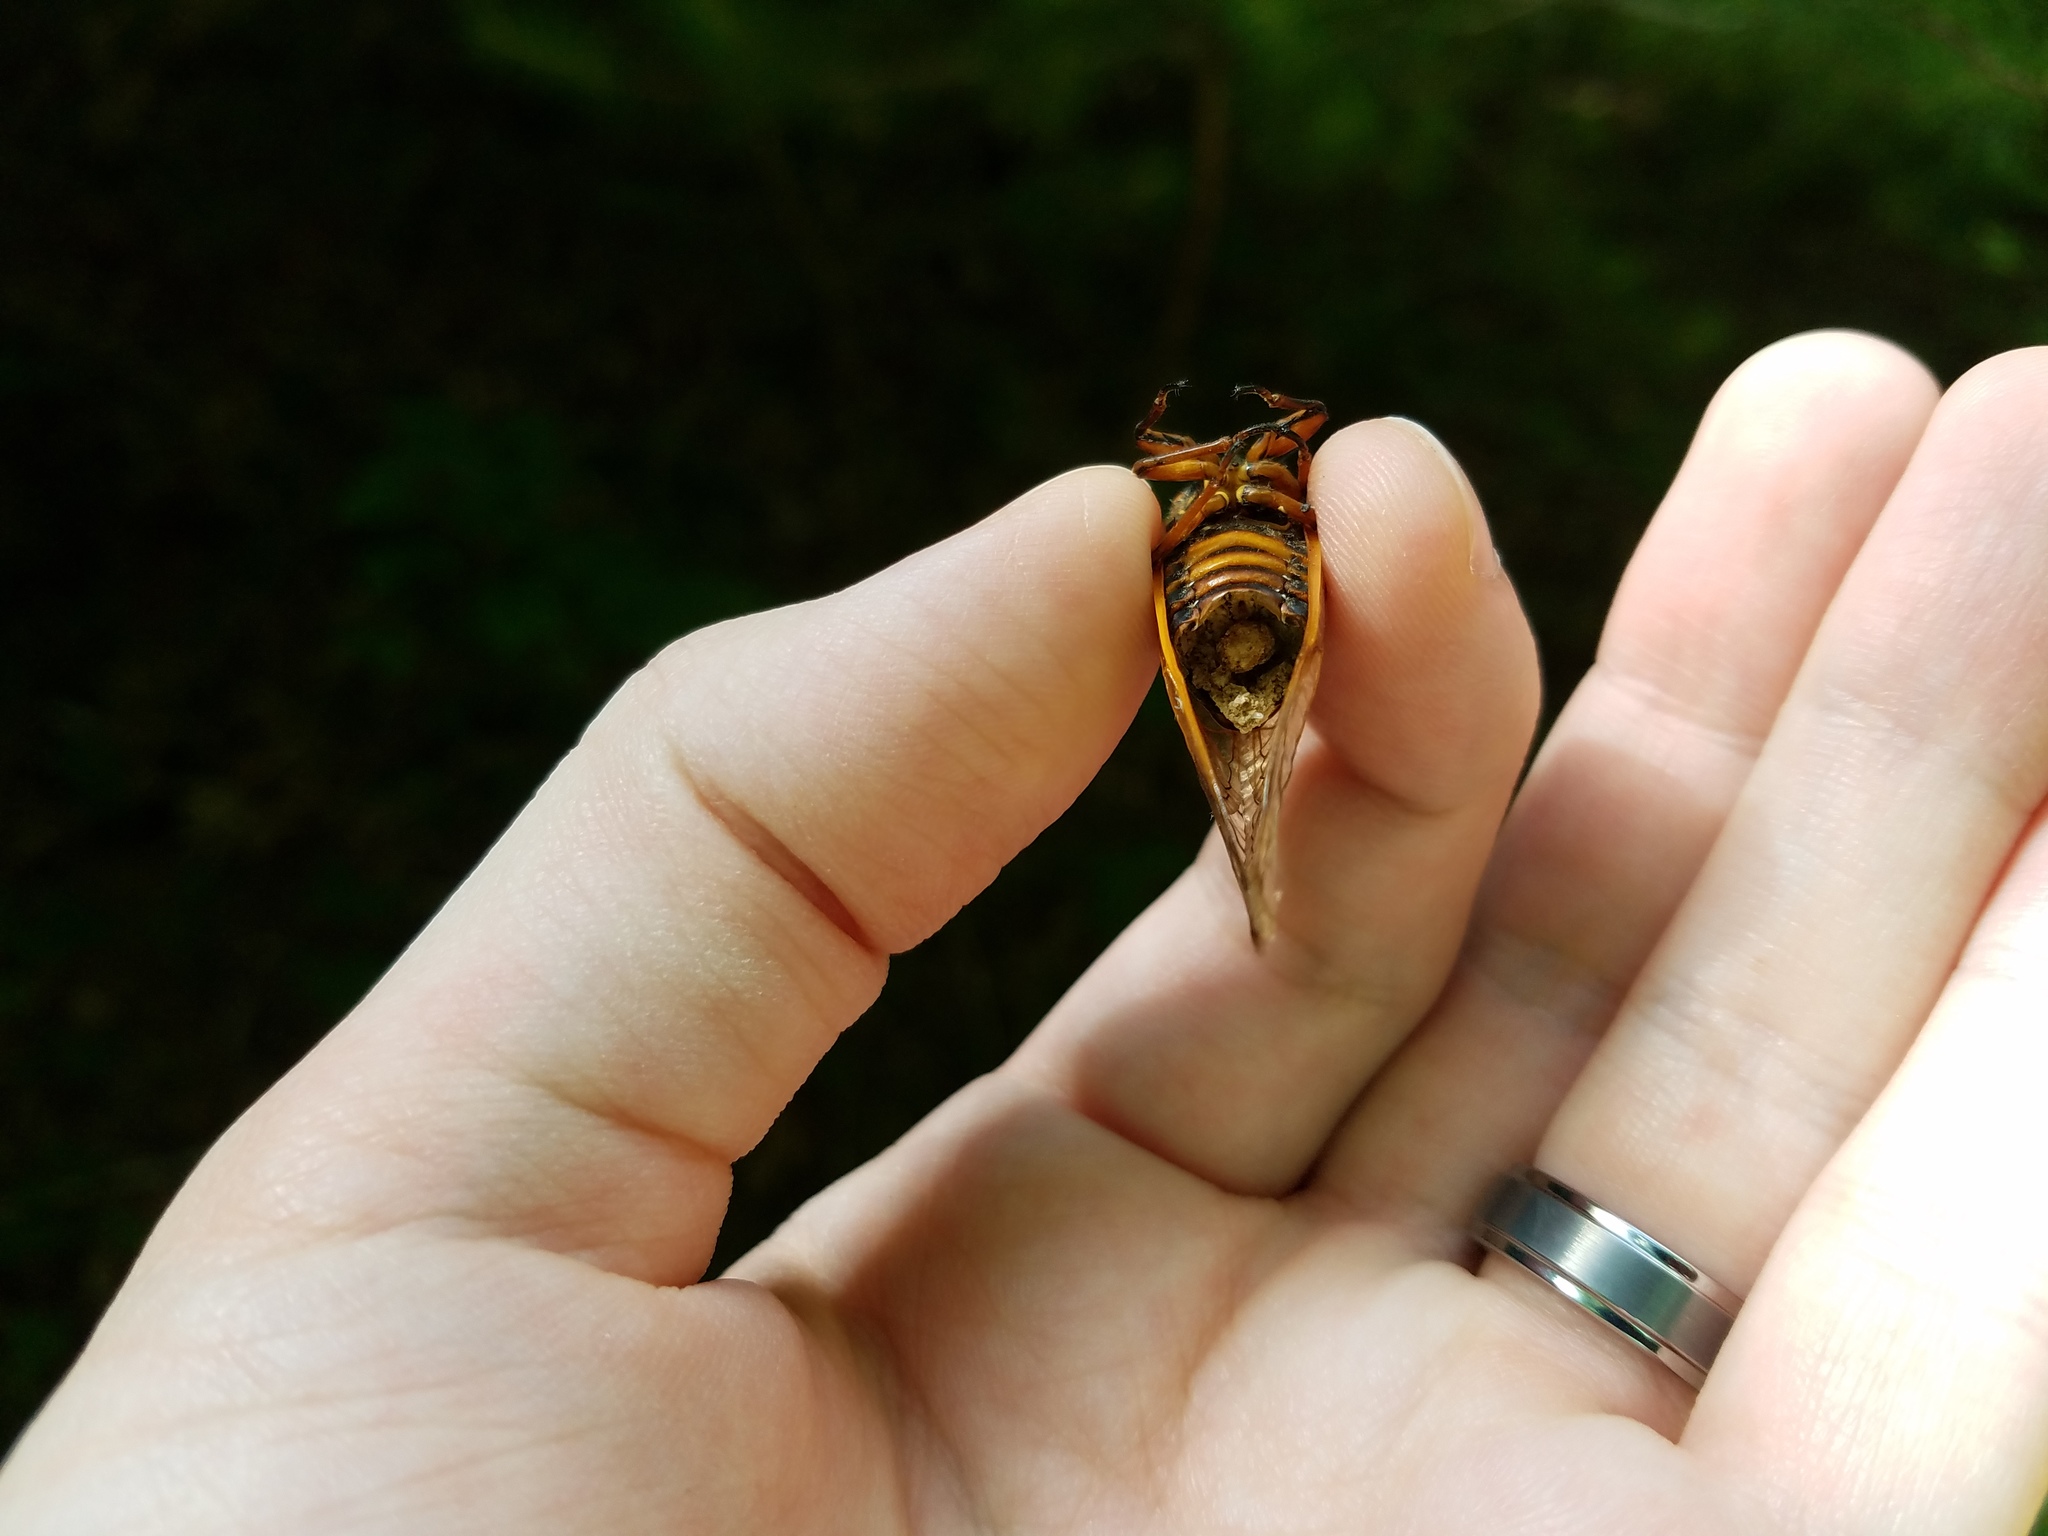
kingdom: Animalia
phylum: Arthropoda
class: Insecta
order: Hemiptera
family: Cicadidae
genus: Magicicada
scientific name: Magicicada septendecim
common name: Periodical cicada
